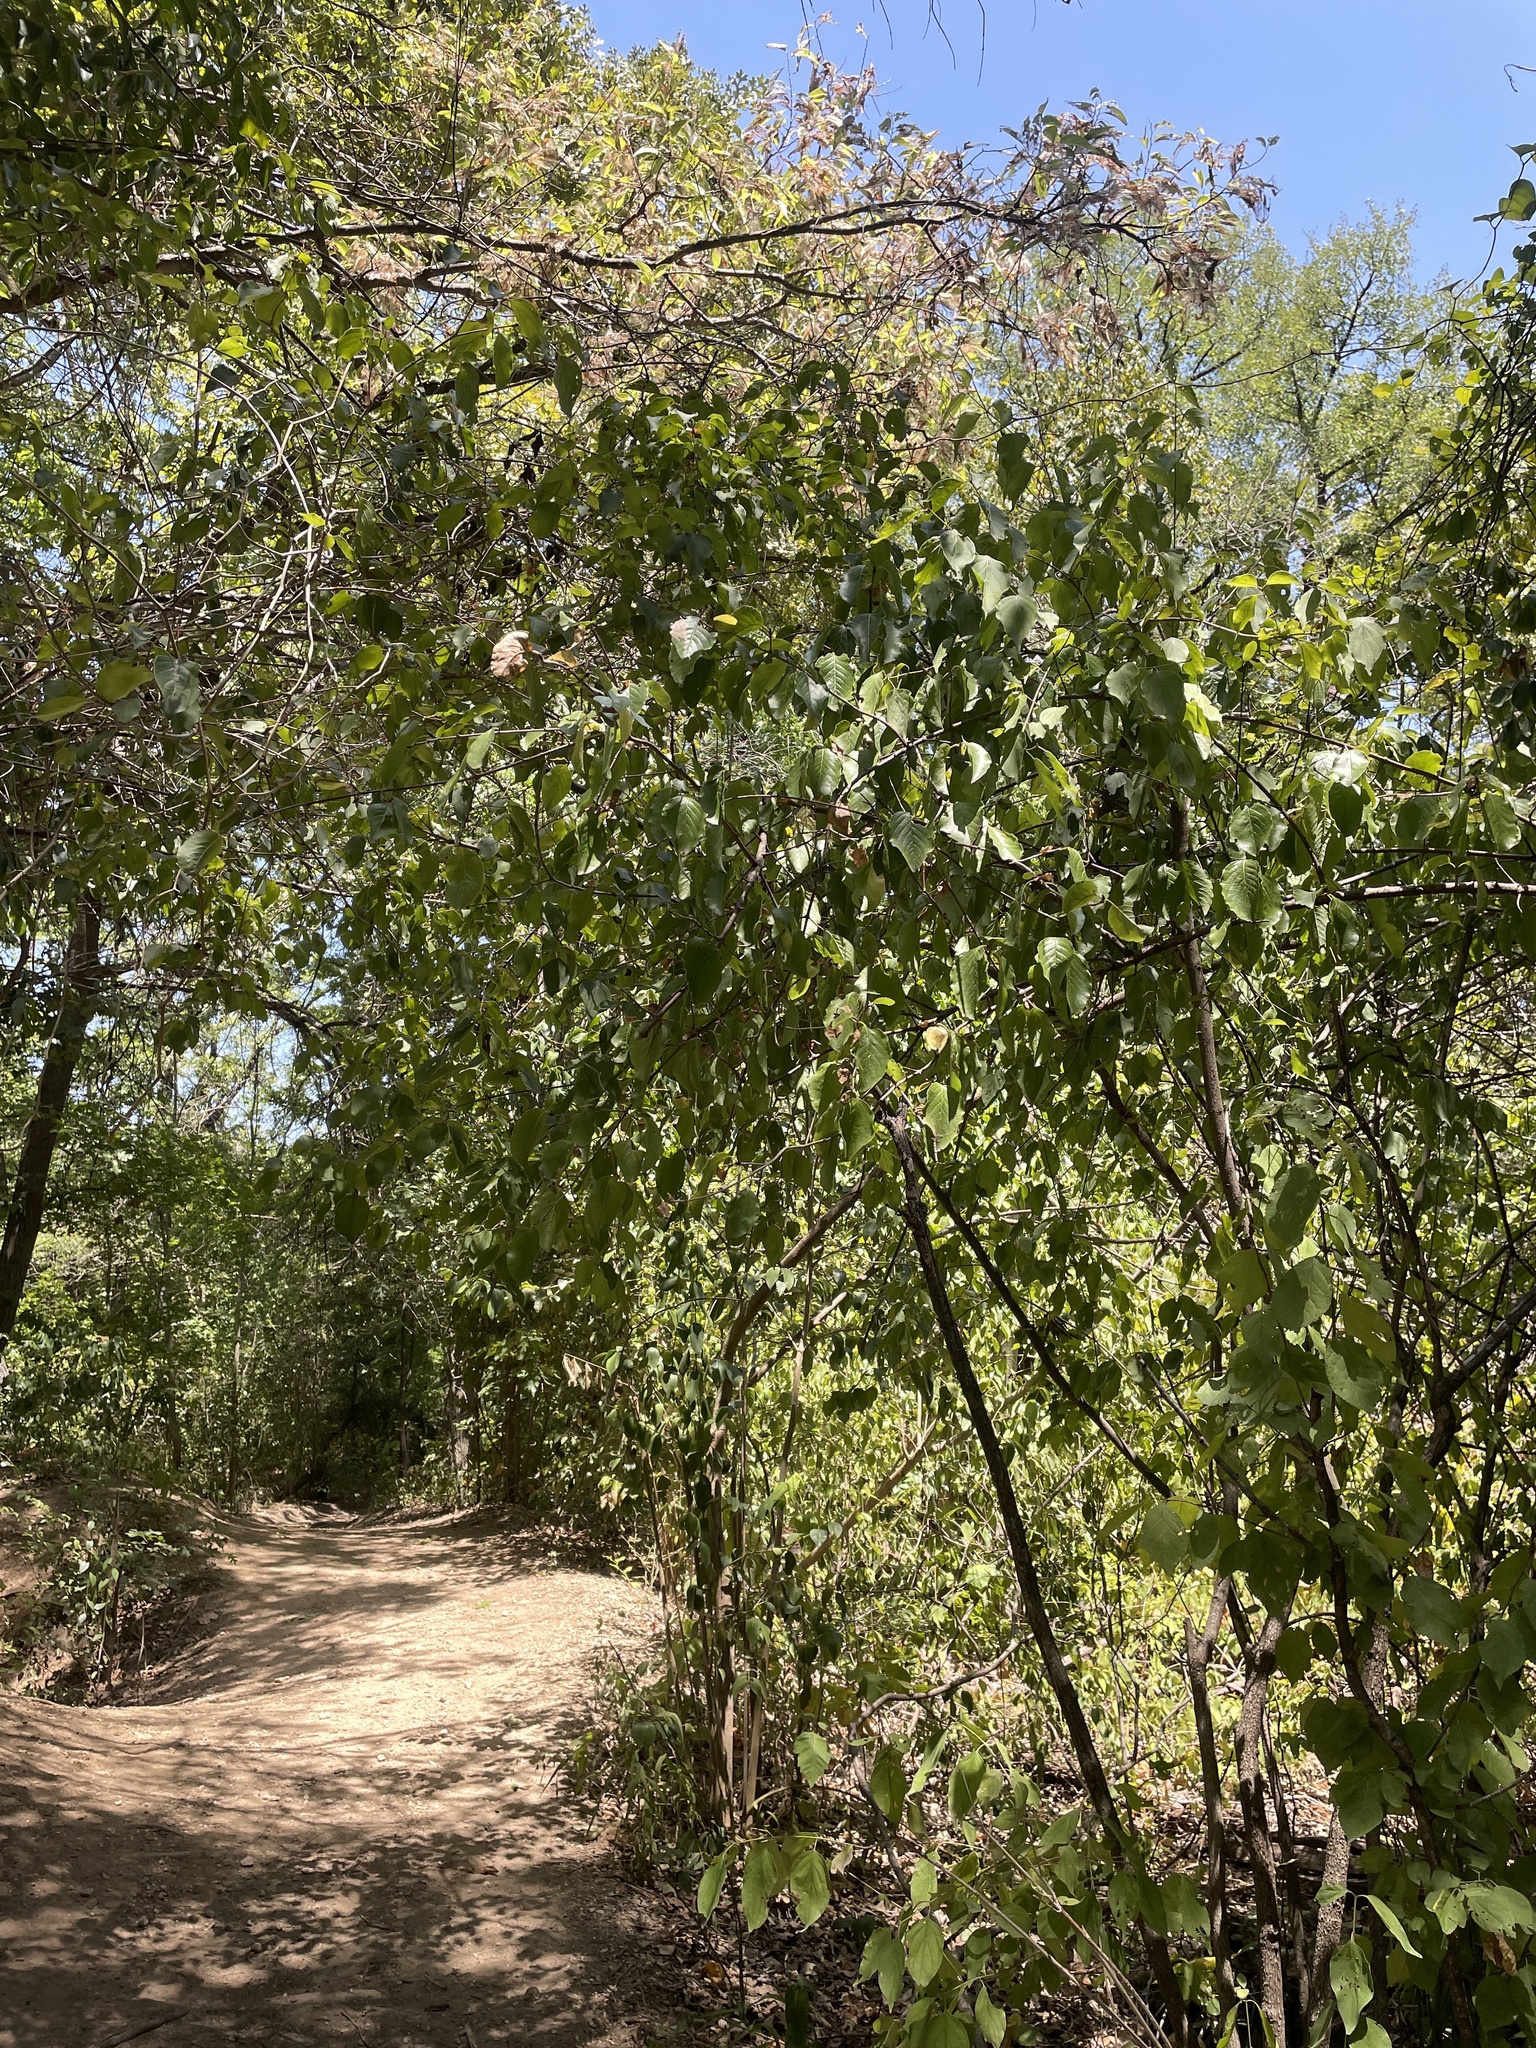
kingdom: Plantae
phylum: Tracheophyta
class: Magnoliopsida
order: Cornales
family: Cornaceae
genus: Cornus
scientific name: Cornus drummondii
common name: Rough-leaf dogwood
